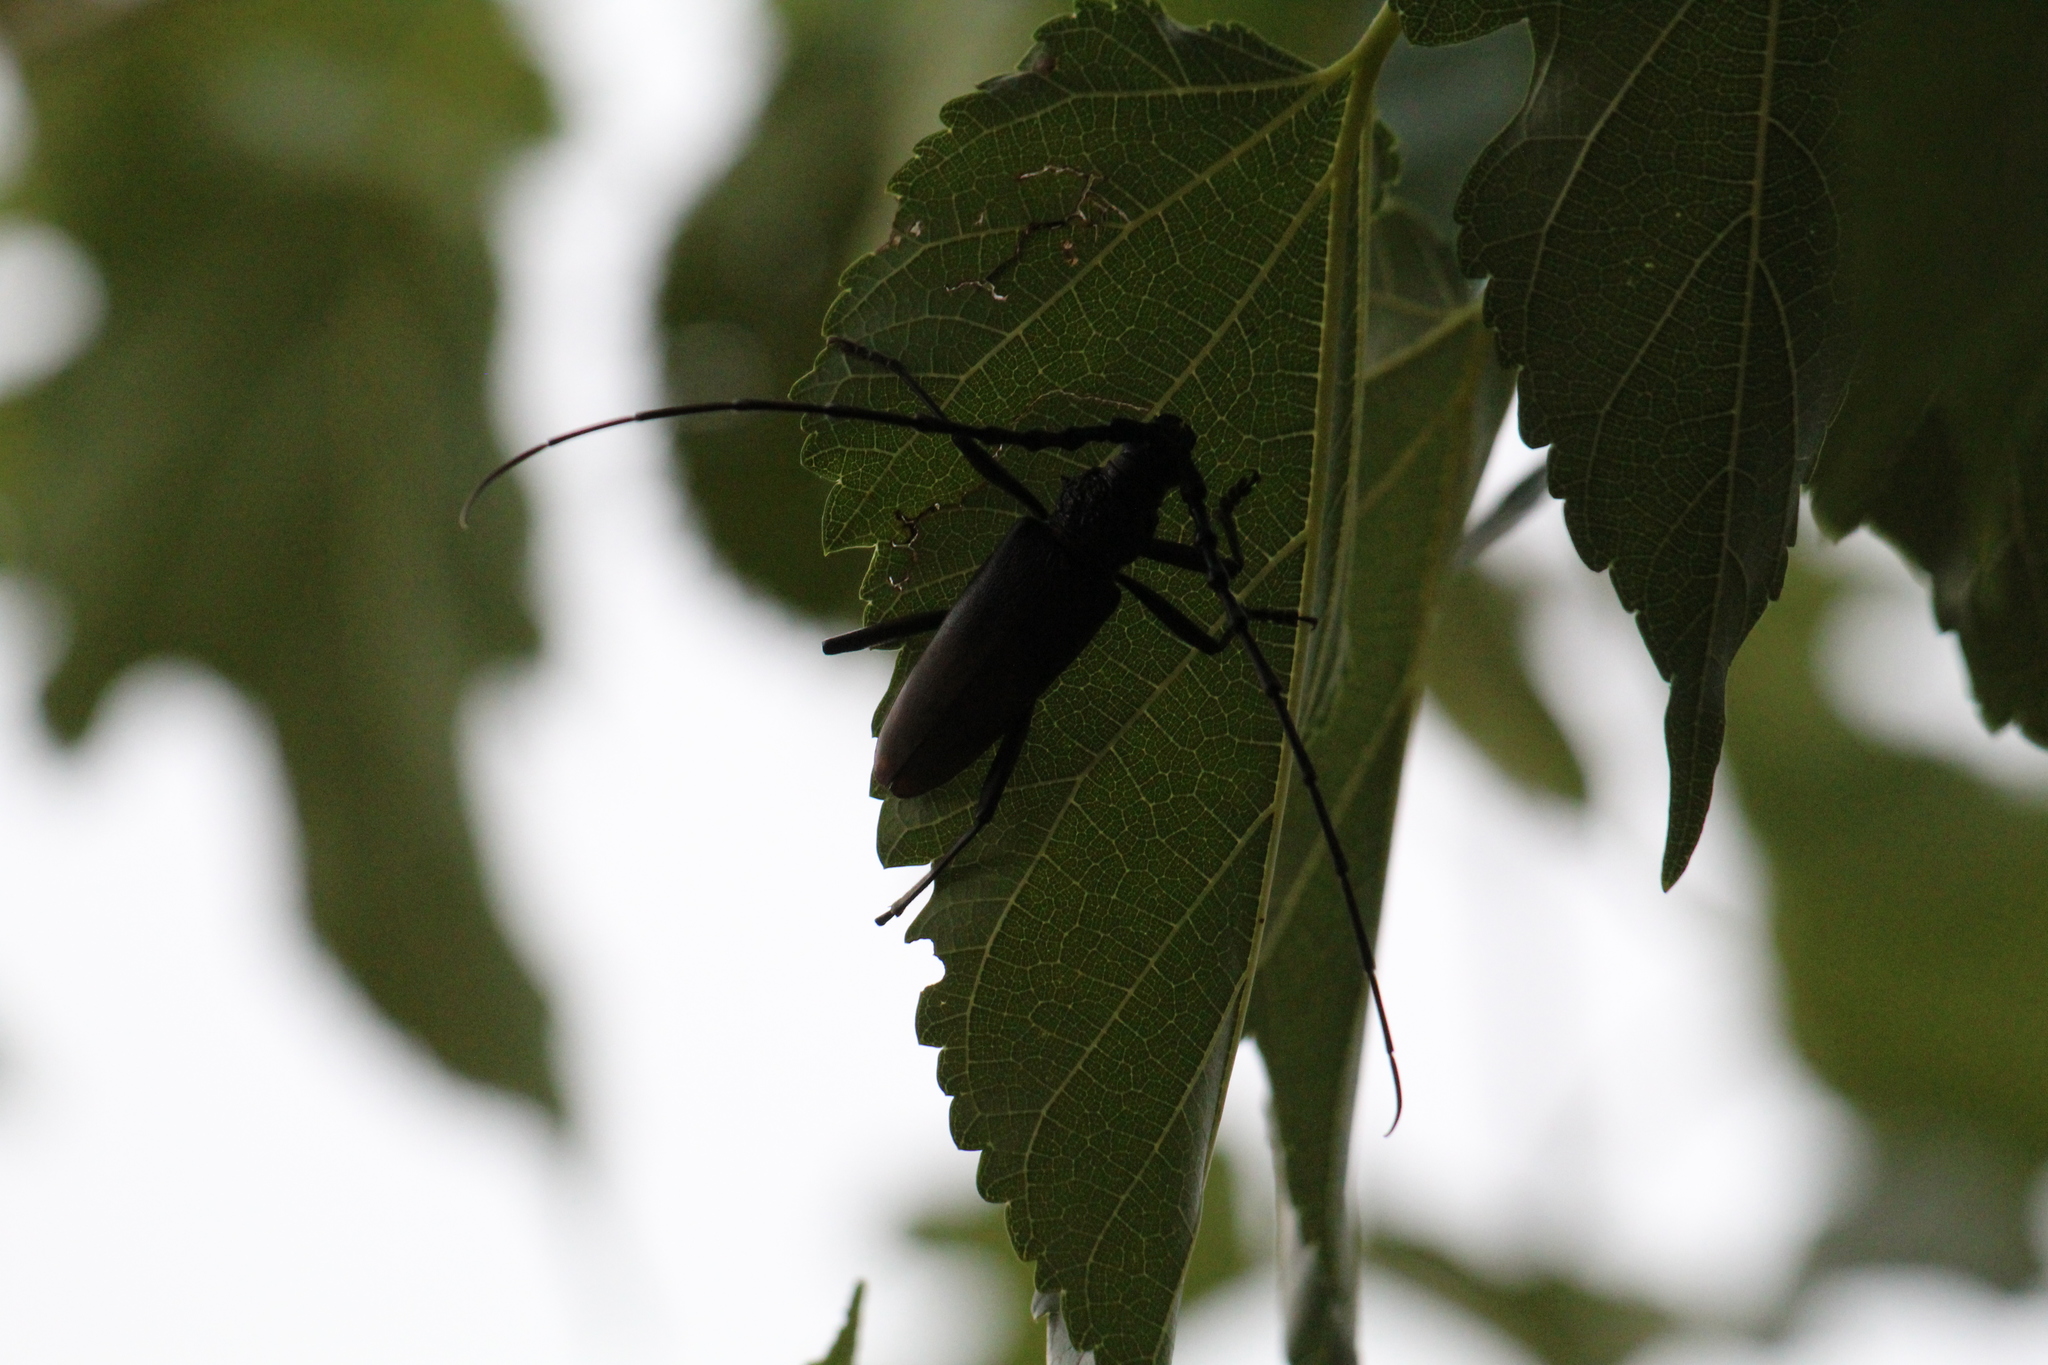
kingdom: Animalia
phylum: Arthropoda
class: Insecta
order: Coleoptera
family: Cerambycidae
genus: Cerambyx
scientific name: Cerambyx cerdo
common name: Cerambyx longicorn
